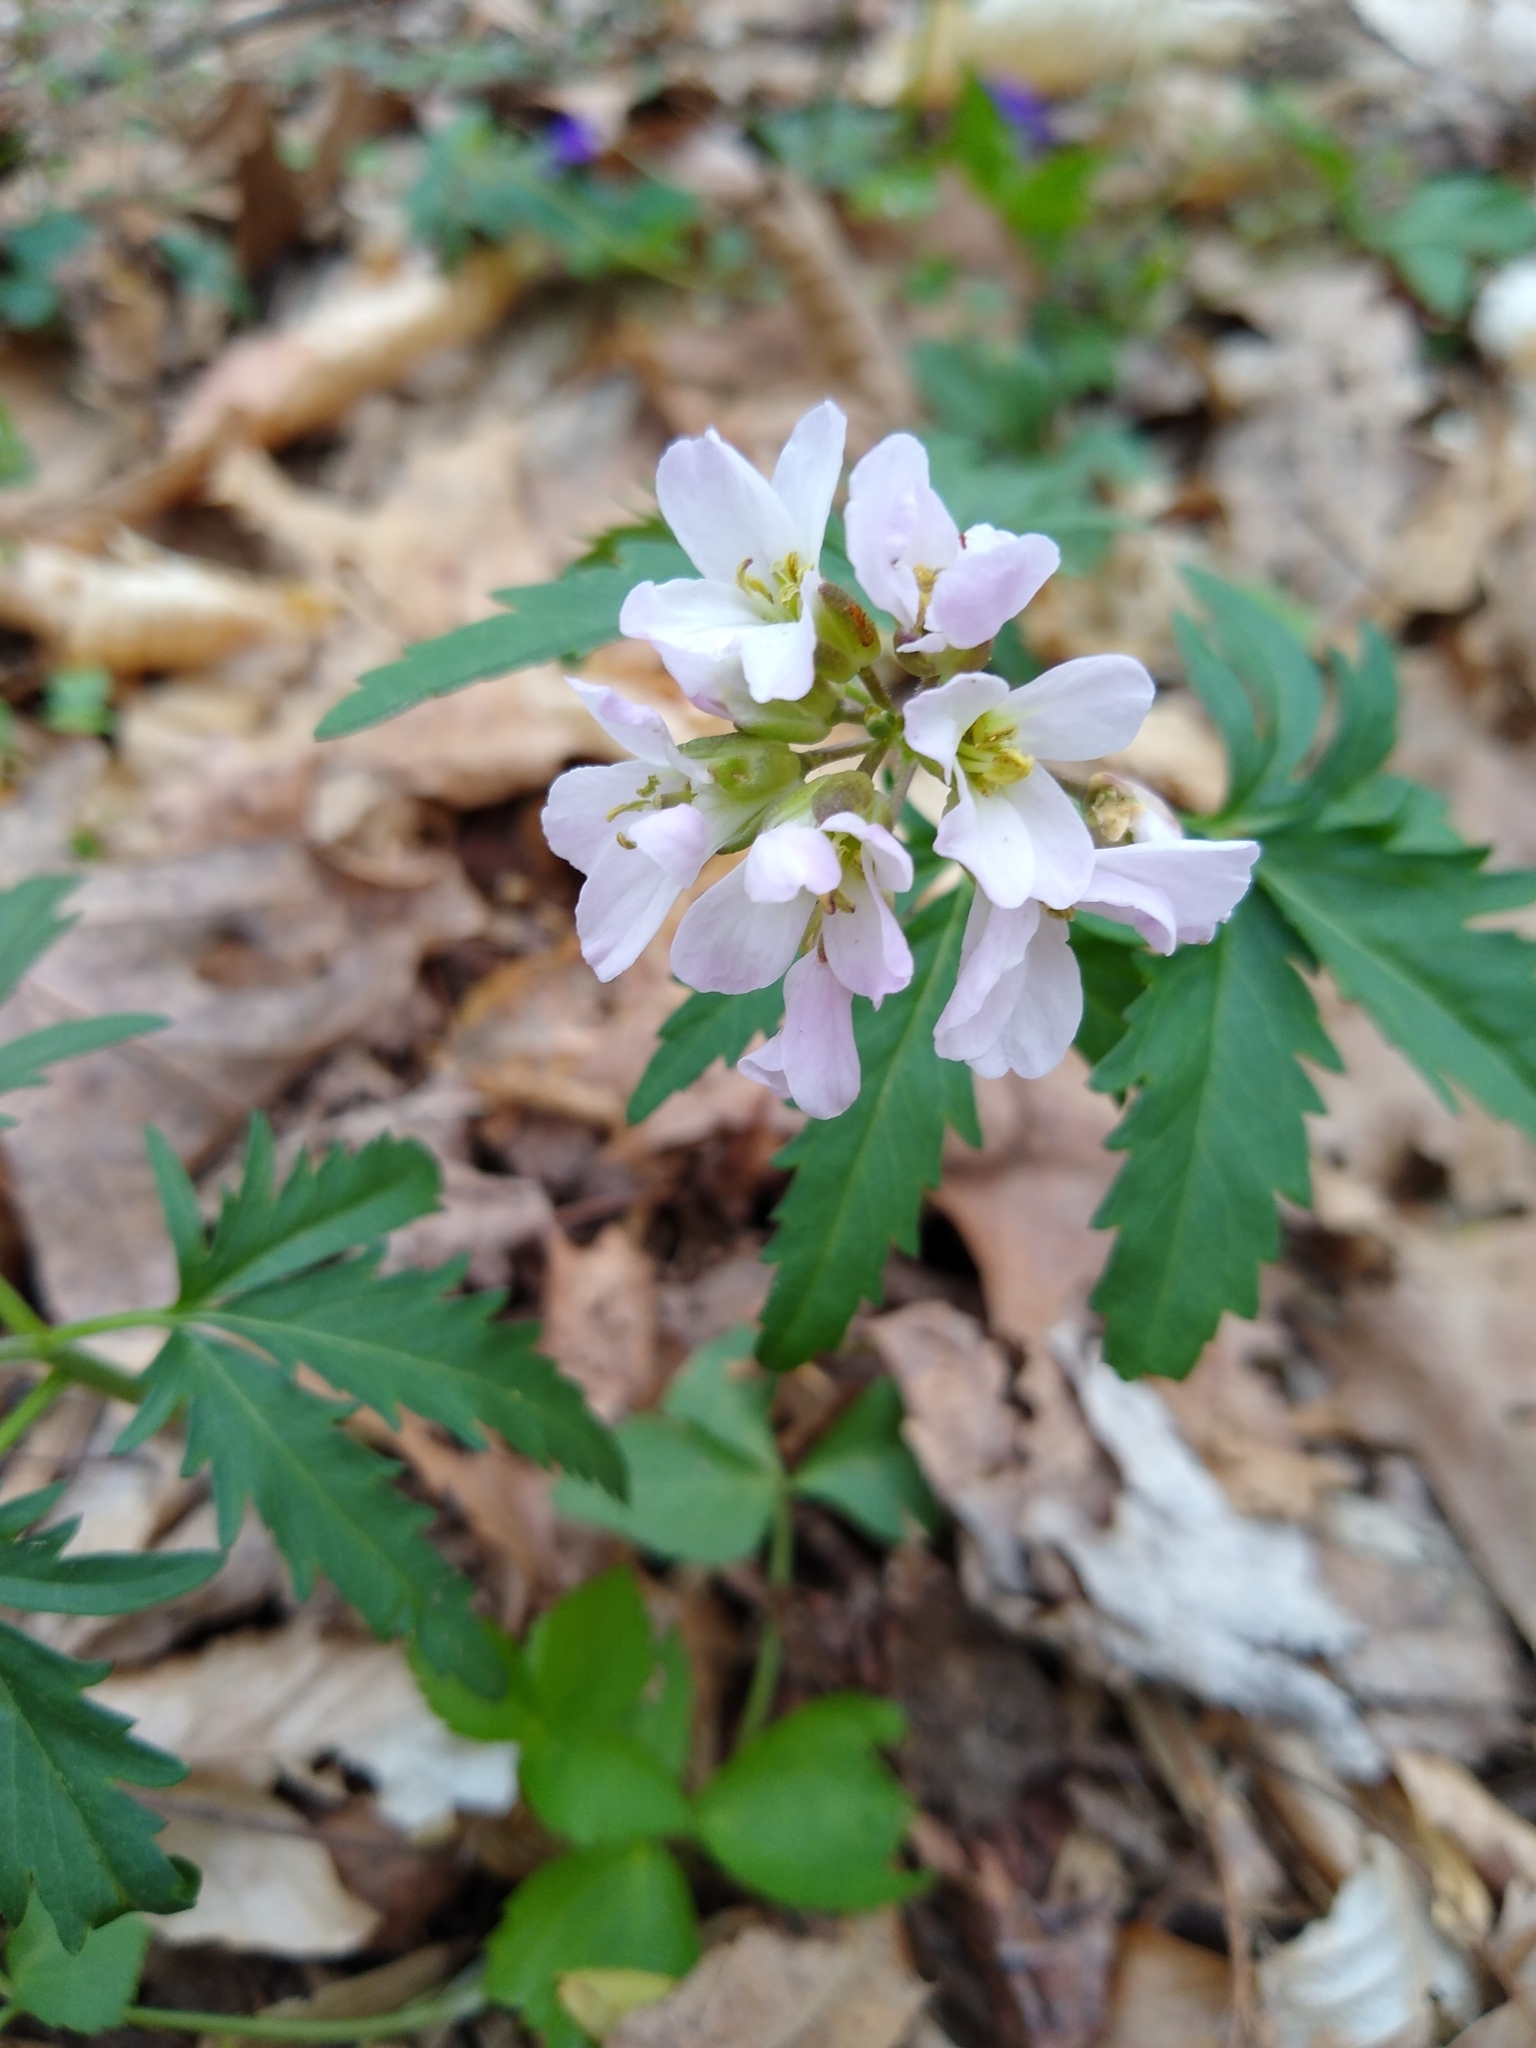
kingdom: Plantae
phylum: Tracheophyta
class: Magnoliopsida
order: Brassicales
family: Brassicaceae
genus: Cardamine
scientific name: Cardamine concatenata
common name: Cut-leaf toothcup
